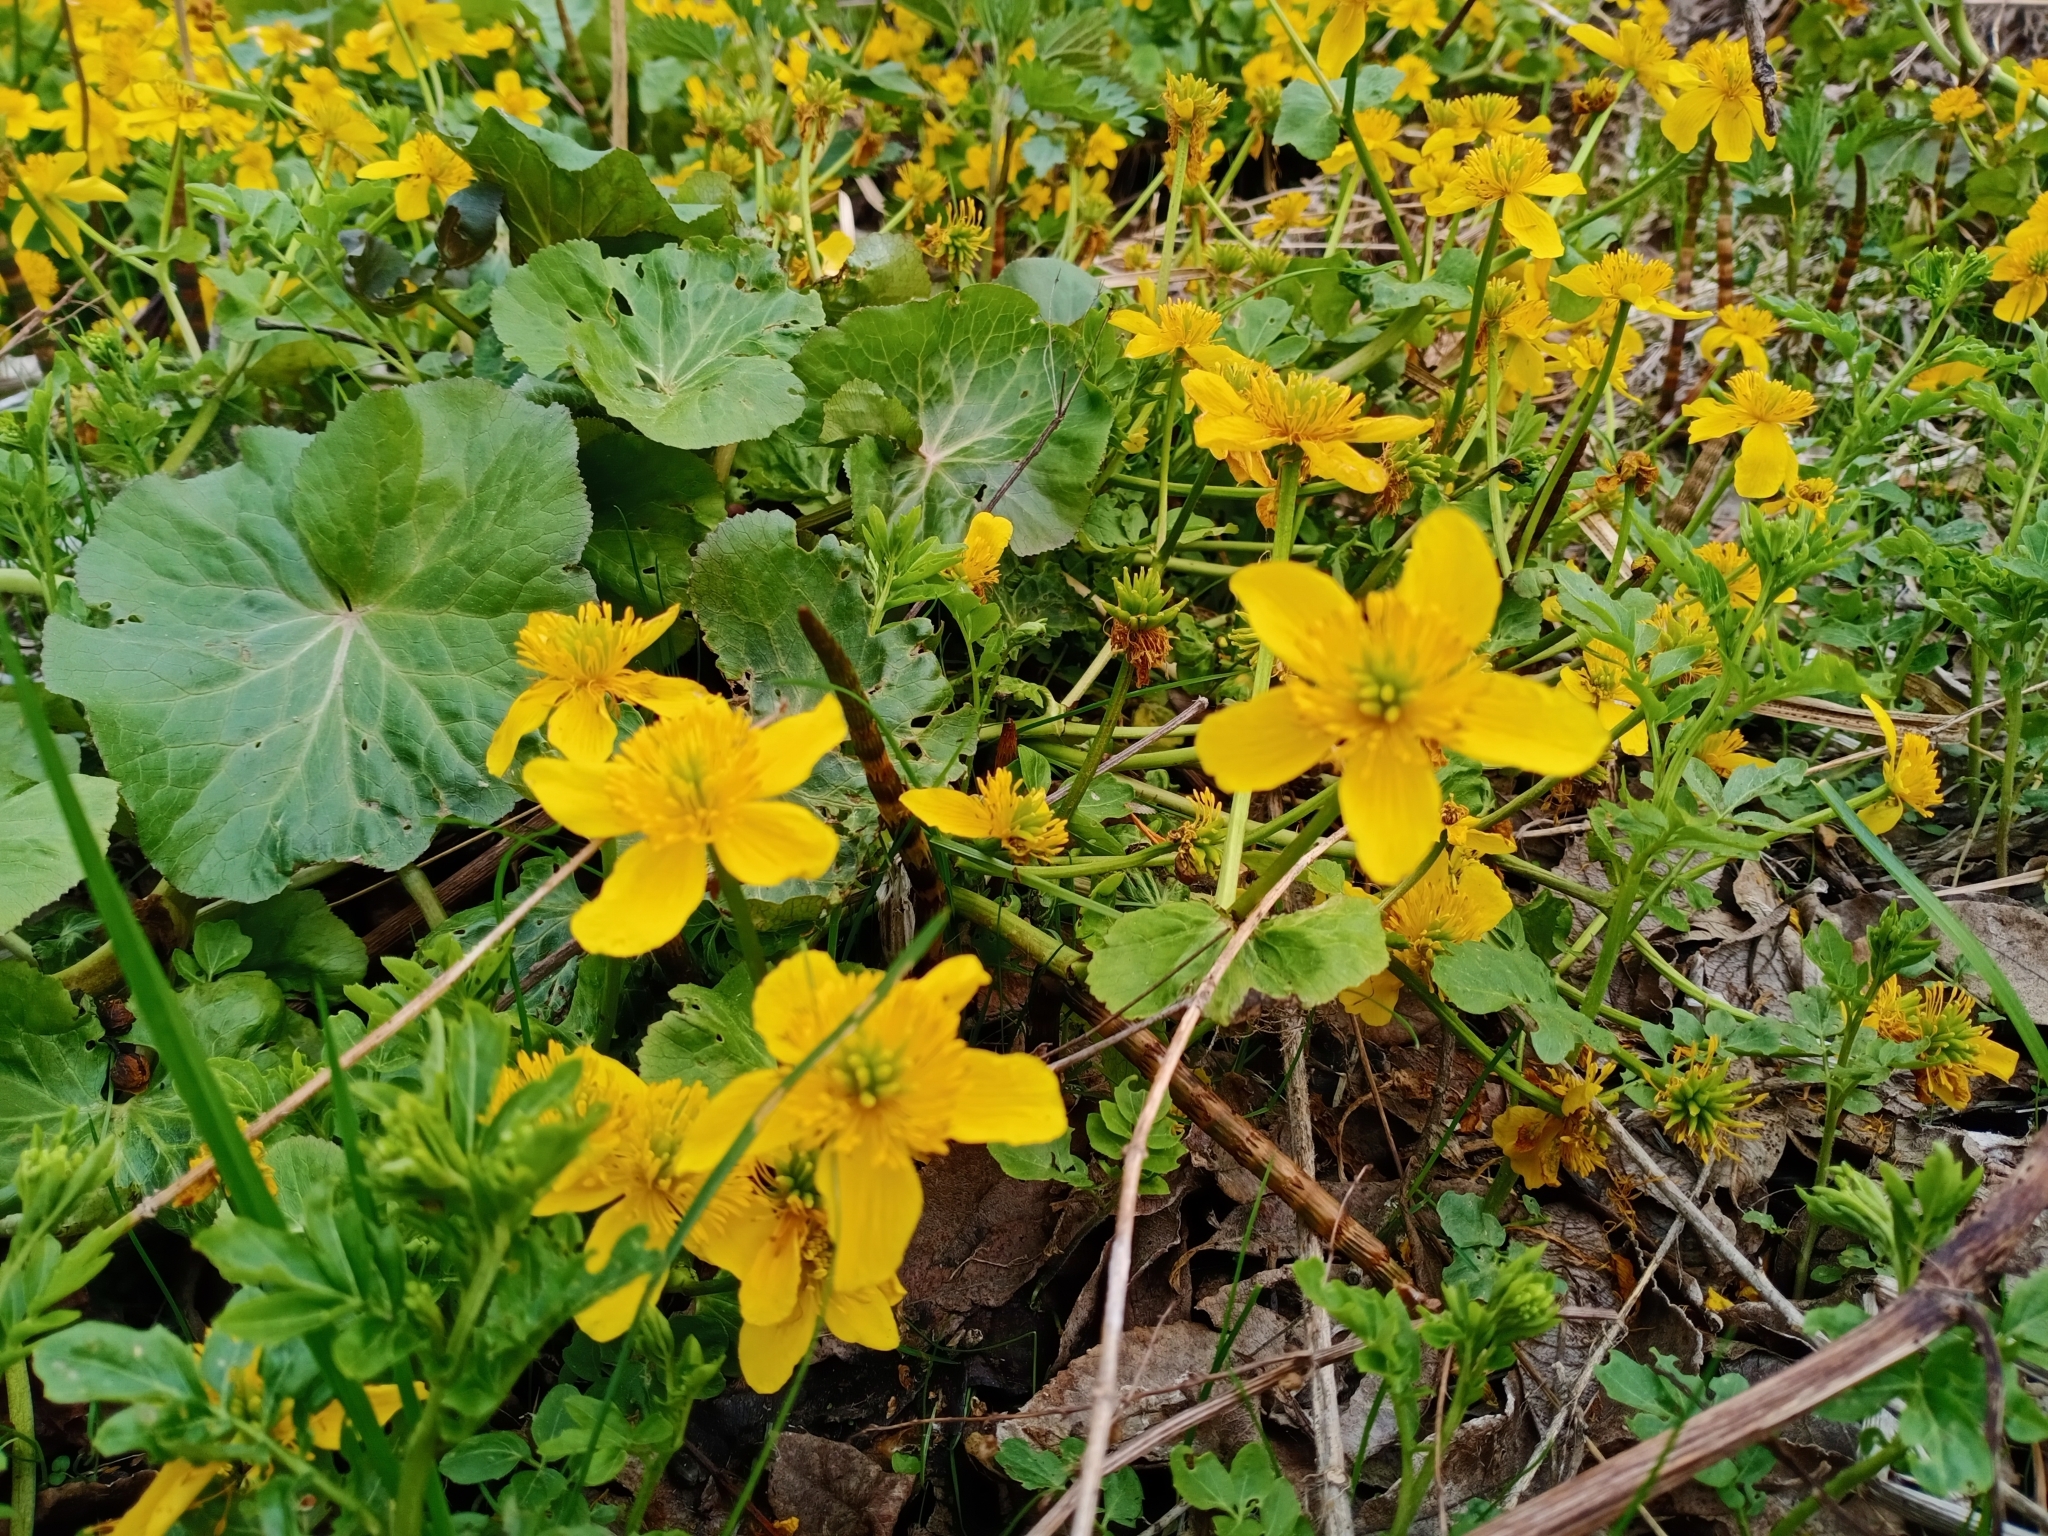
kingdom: Plantae
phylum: Tracheophyta
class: Magnoliopsida
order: Ranunculales
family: Ranunculaceae
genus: Caltha
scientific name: Caltha palustris
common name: Marsh marigold
